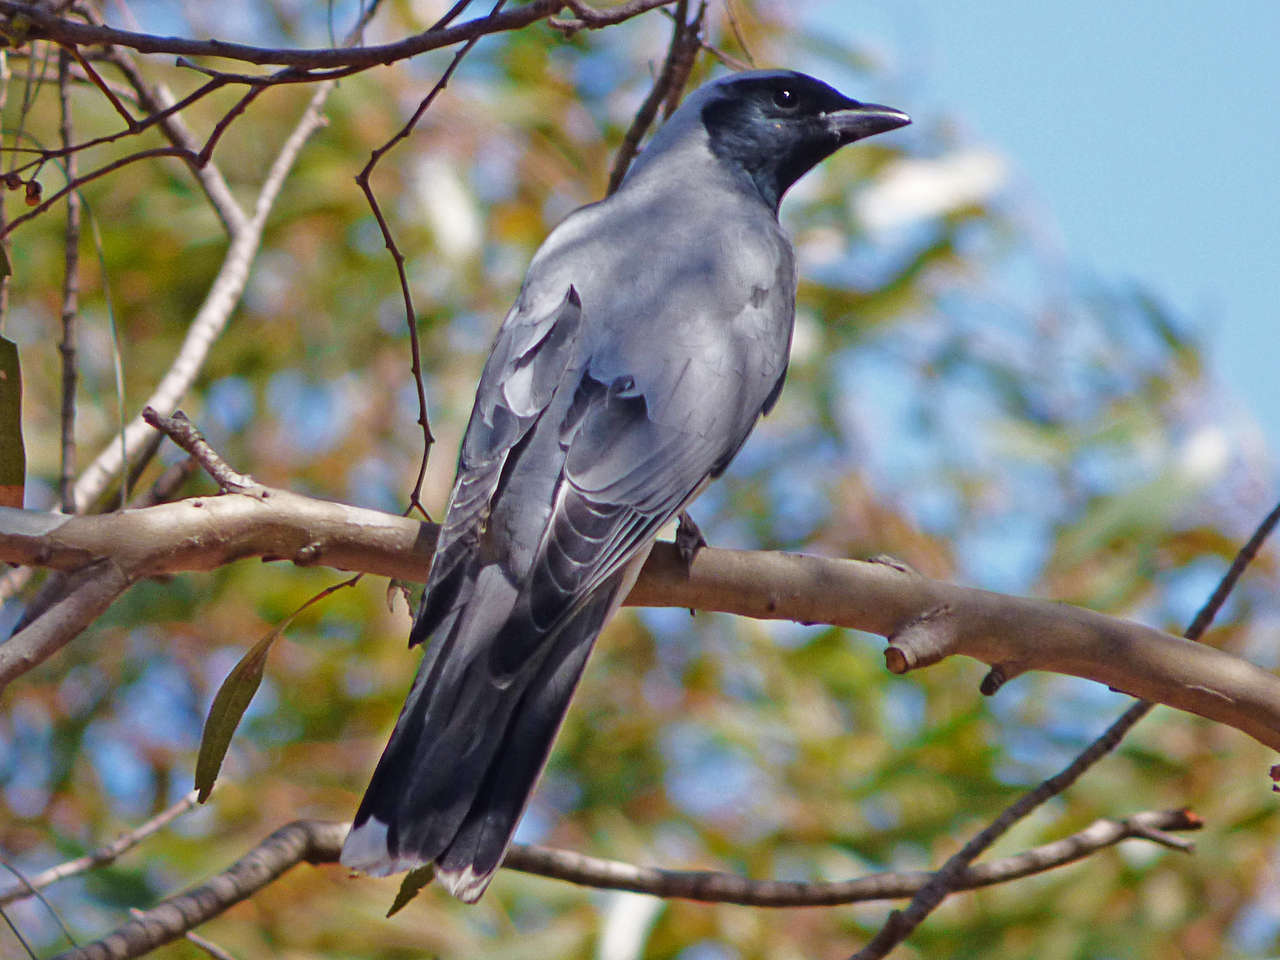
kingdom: Animalia
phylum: Chordata
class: Aves
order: Passeriformes
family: Campephagidae
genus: Coracina
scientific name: Coracina novaehollandiae
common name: Black-faced cuckooshrike
